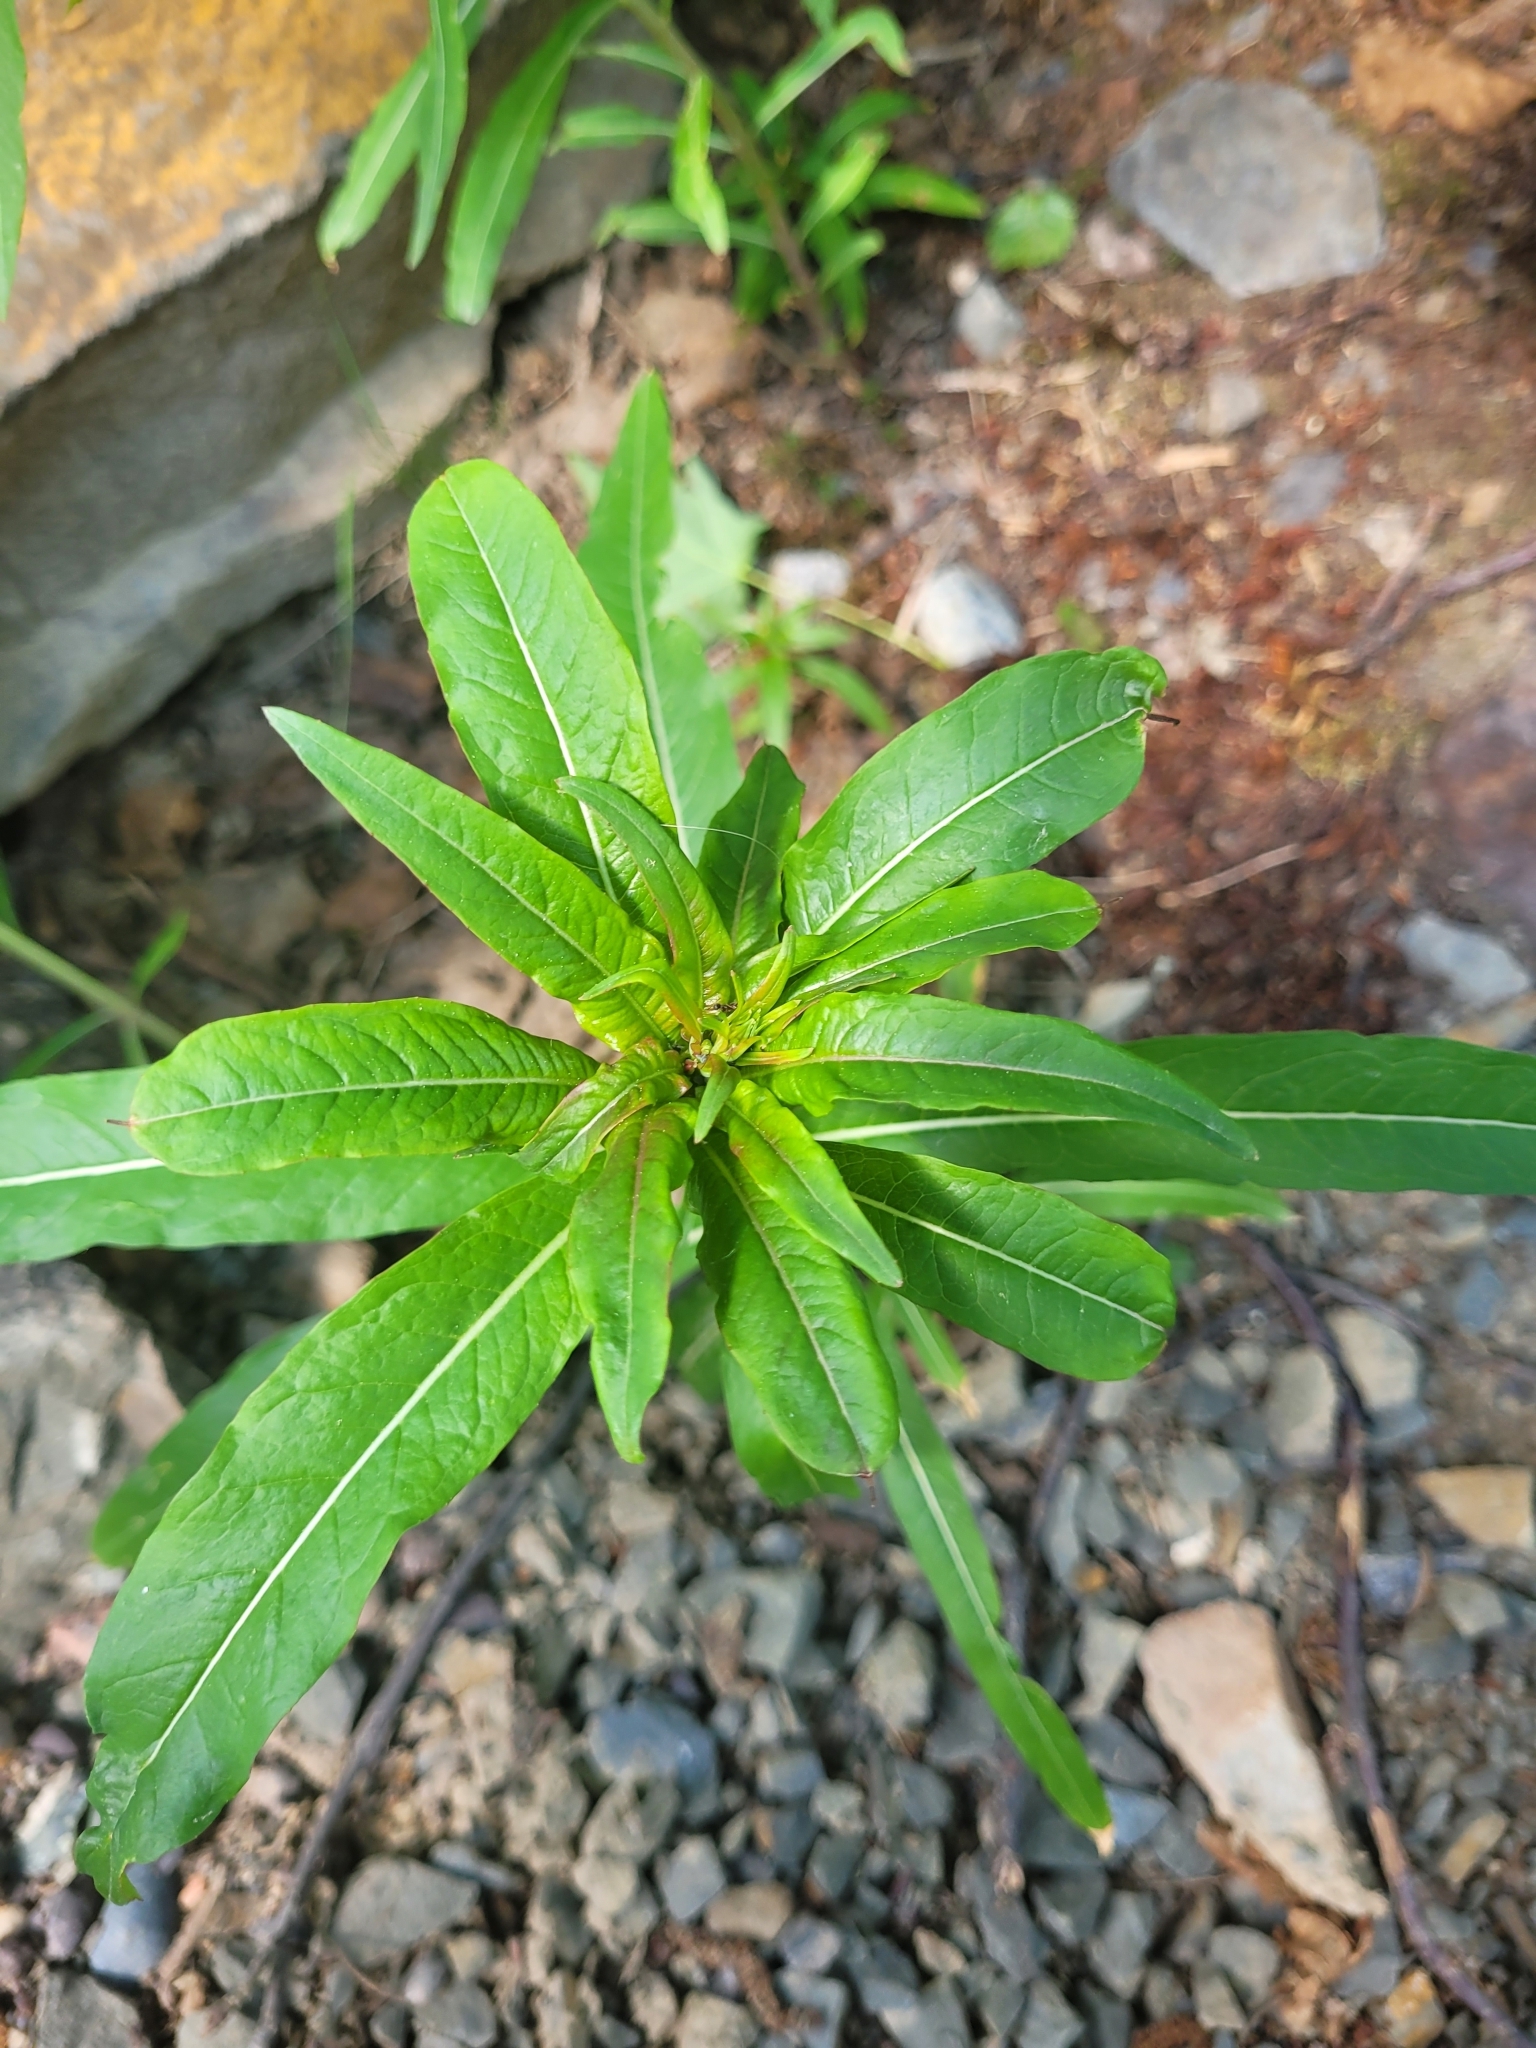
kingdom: Plantae
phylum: Tracheophyta
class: Magnoliopsida
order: Myrtales
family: Onagraceae
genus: Chamaenerion
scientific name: Chamaenerion angustifolium
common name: Fireweed
